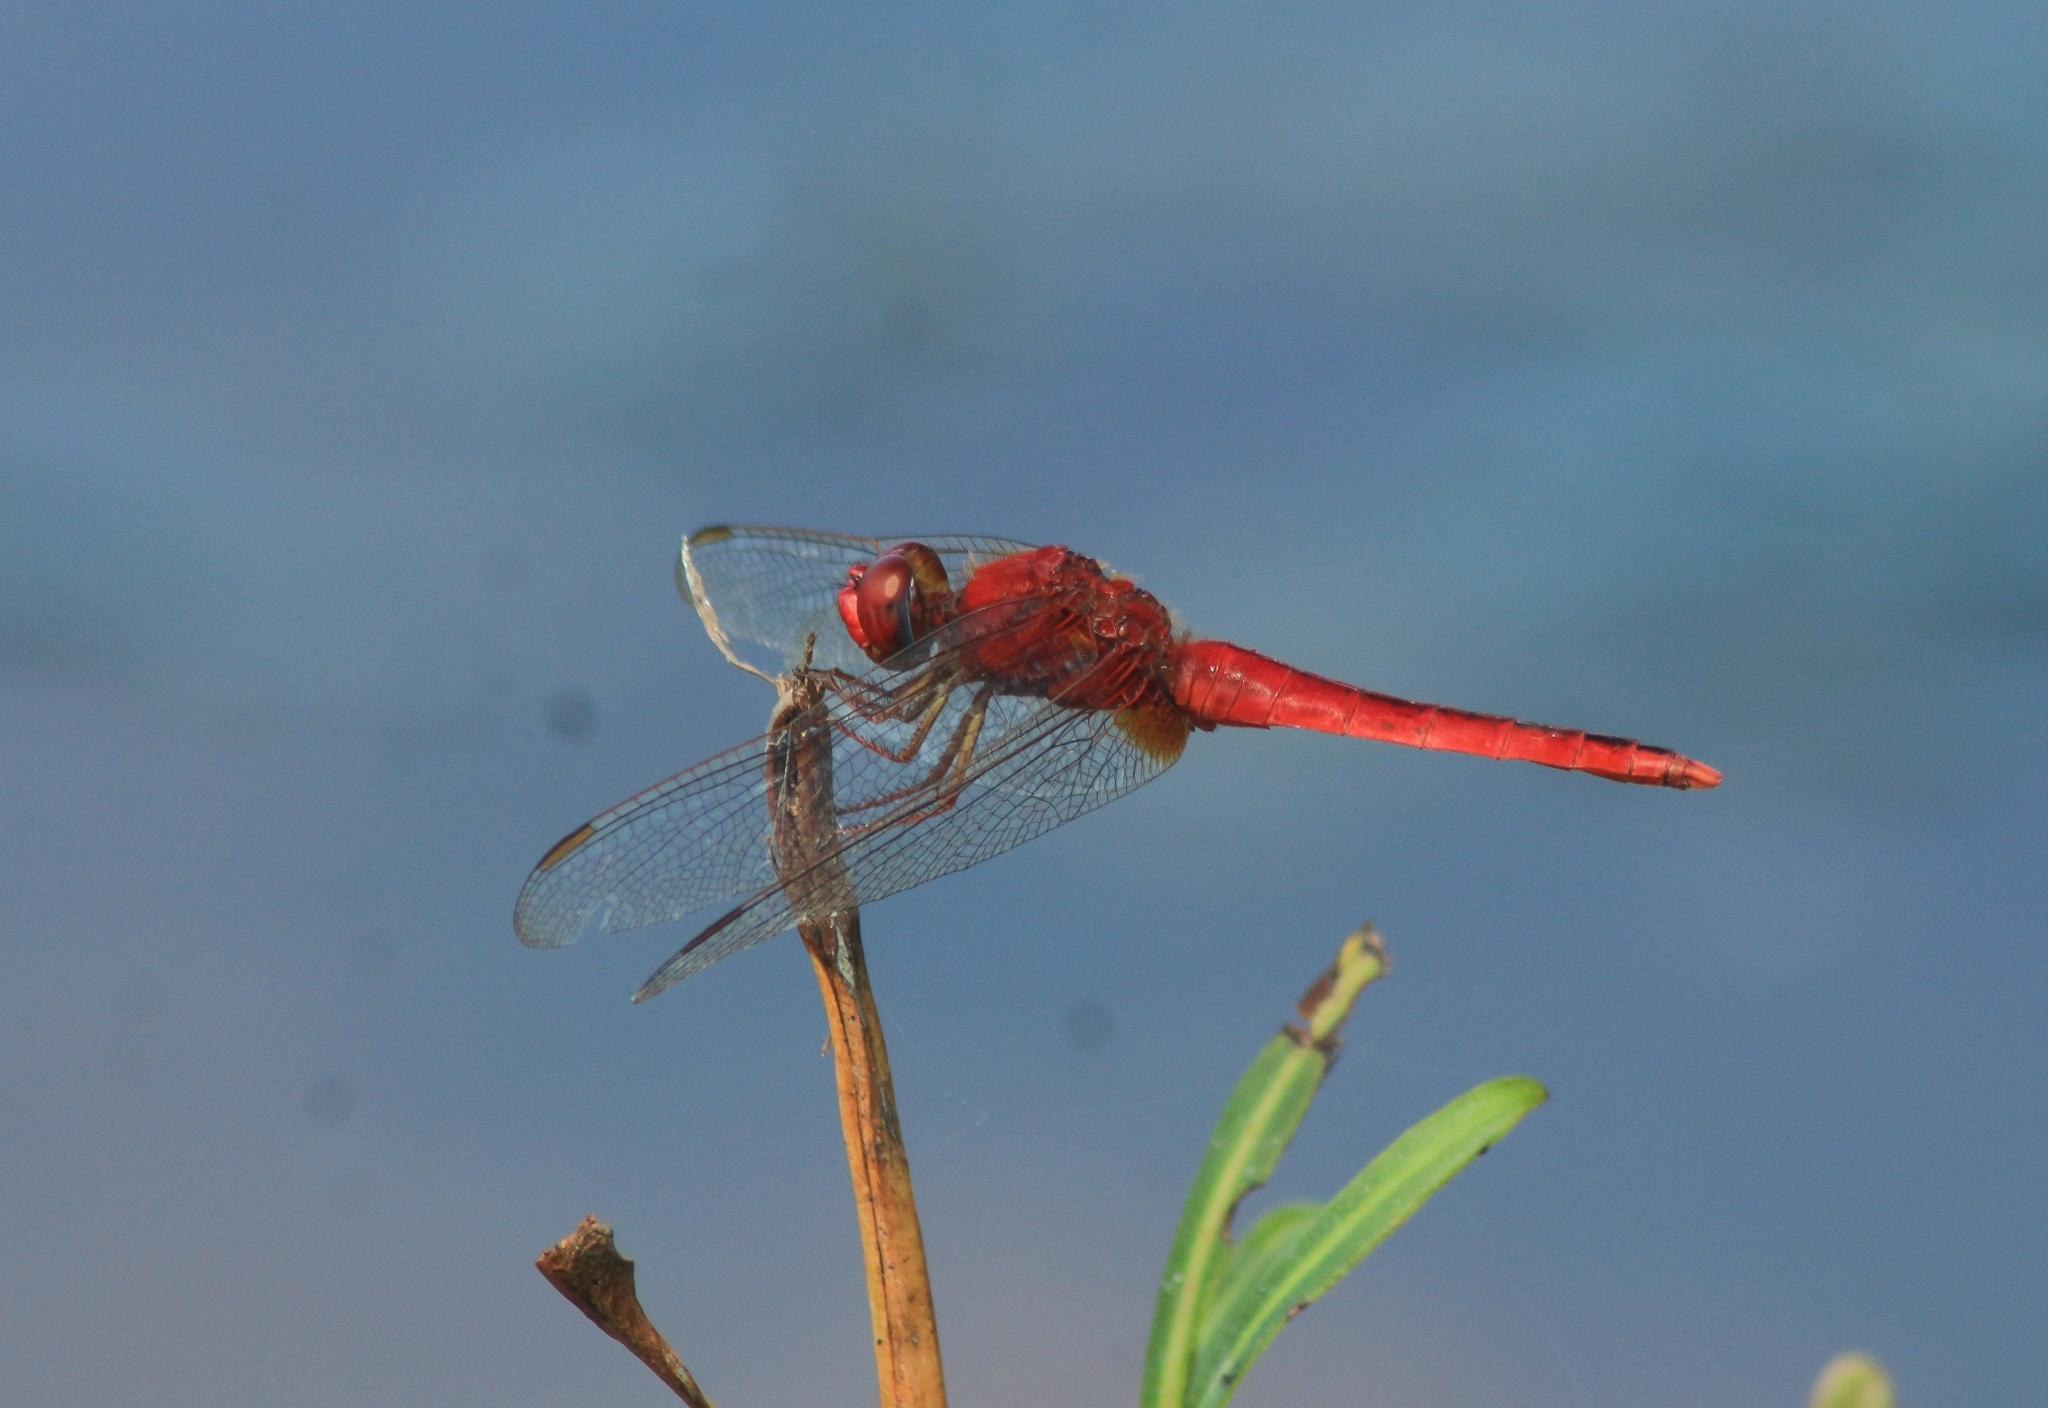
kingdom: Animalia
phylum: Arthropoda
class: Insecta
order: Odonata
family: Libellulidae
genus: Crocothemis
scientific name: Crocothemis servilia
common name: Scarlet skimmer
